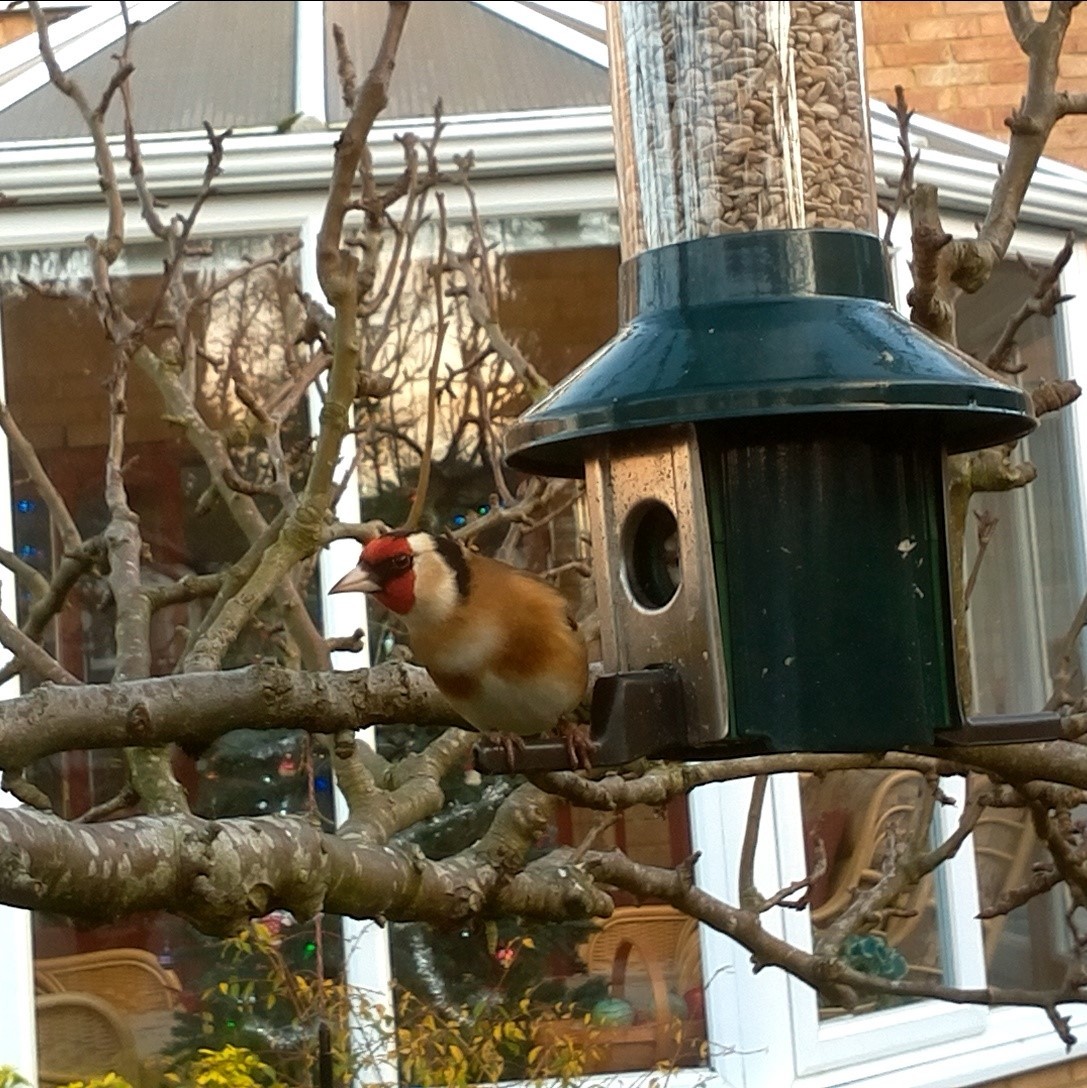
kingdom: Animalia
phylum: Chordata
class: Aves
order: Passeriformes
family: Fringillidae
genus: Carduelis
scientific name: Carduelis carduelis
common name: European goldfinch
